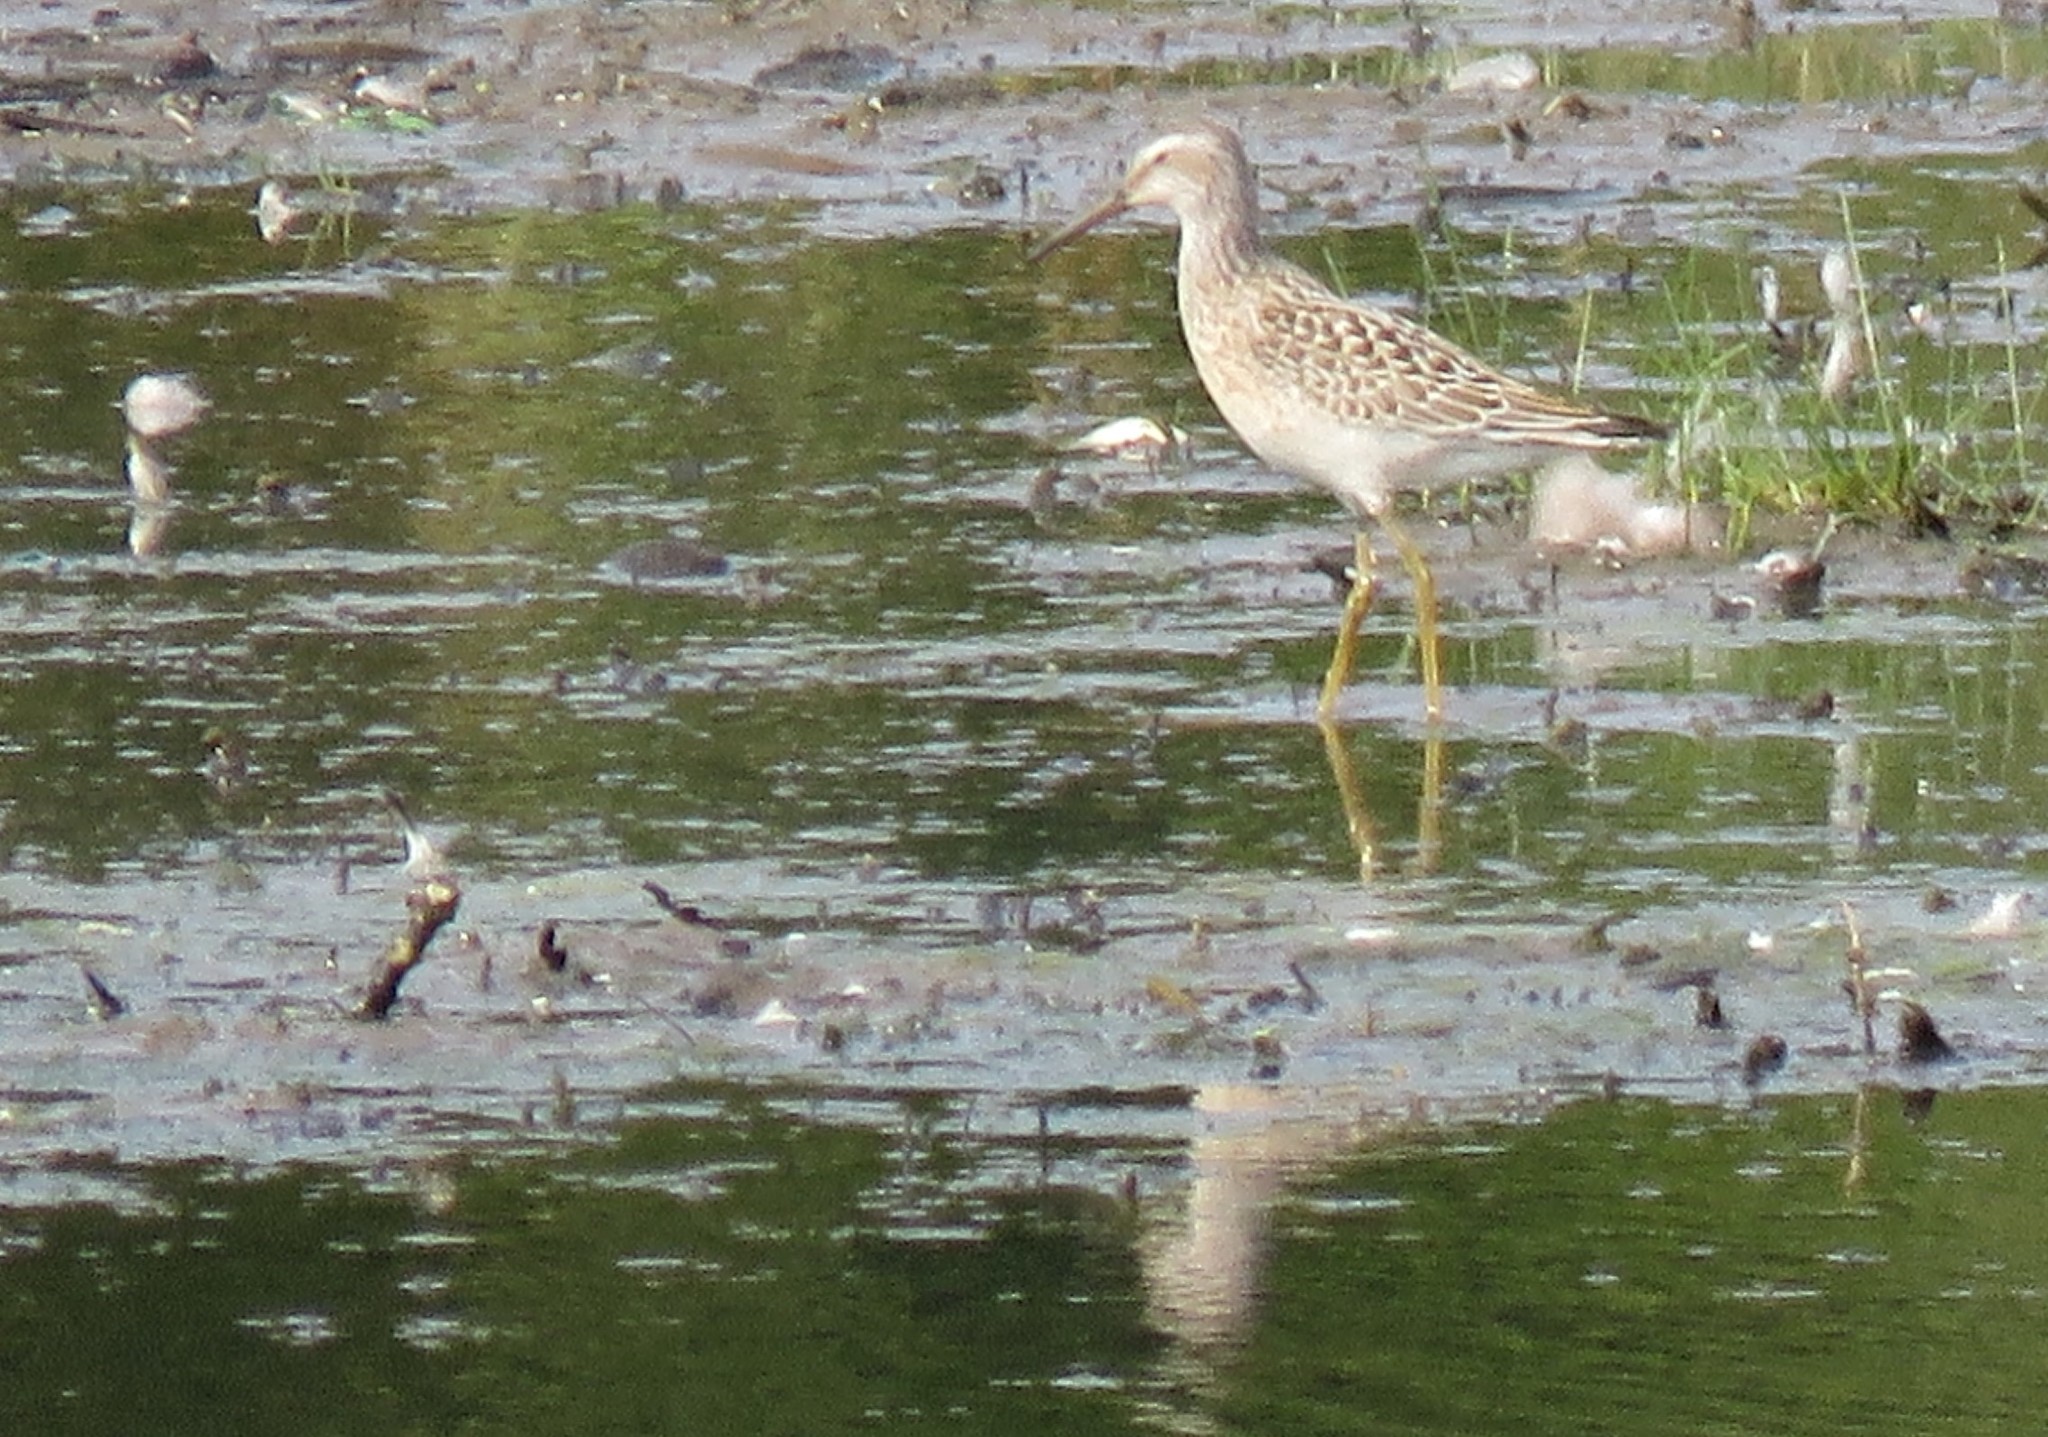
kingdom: Animalia
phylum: Chordata
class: Aves
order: Charadriiformes
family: Scolopacidae
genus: Calidris
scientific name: Calidris himantopus
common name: Stilt sandpiper
